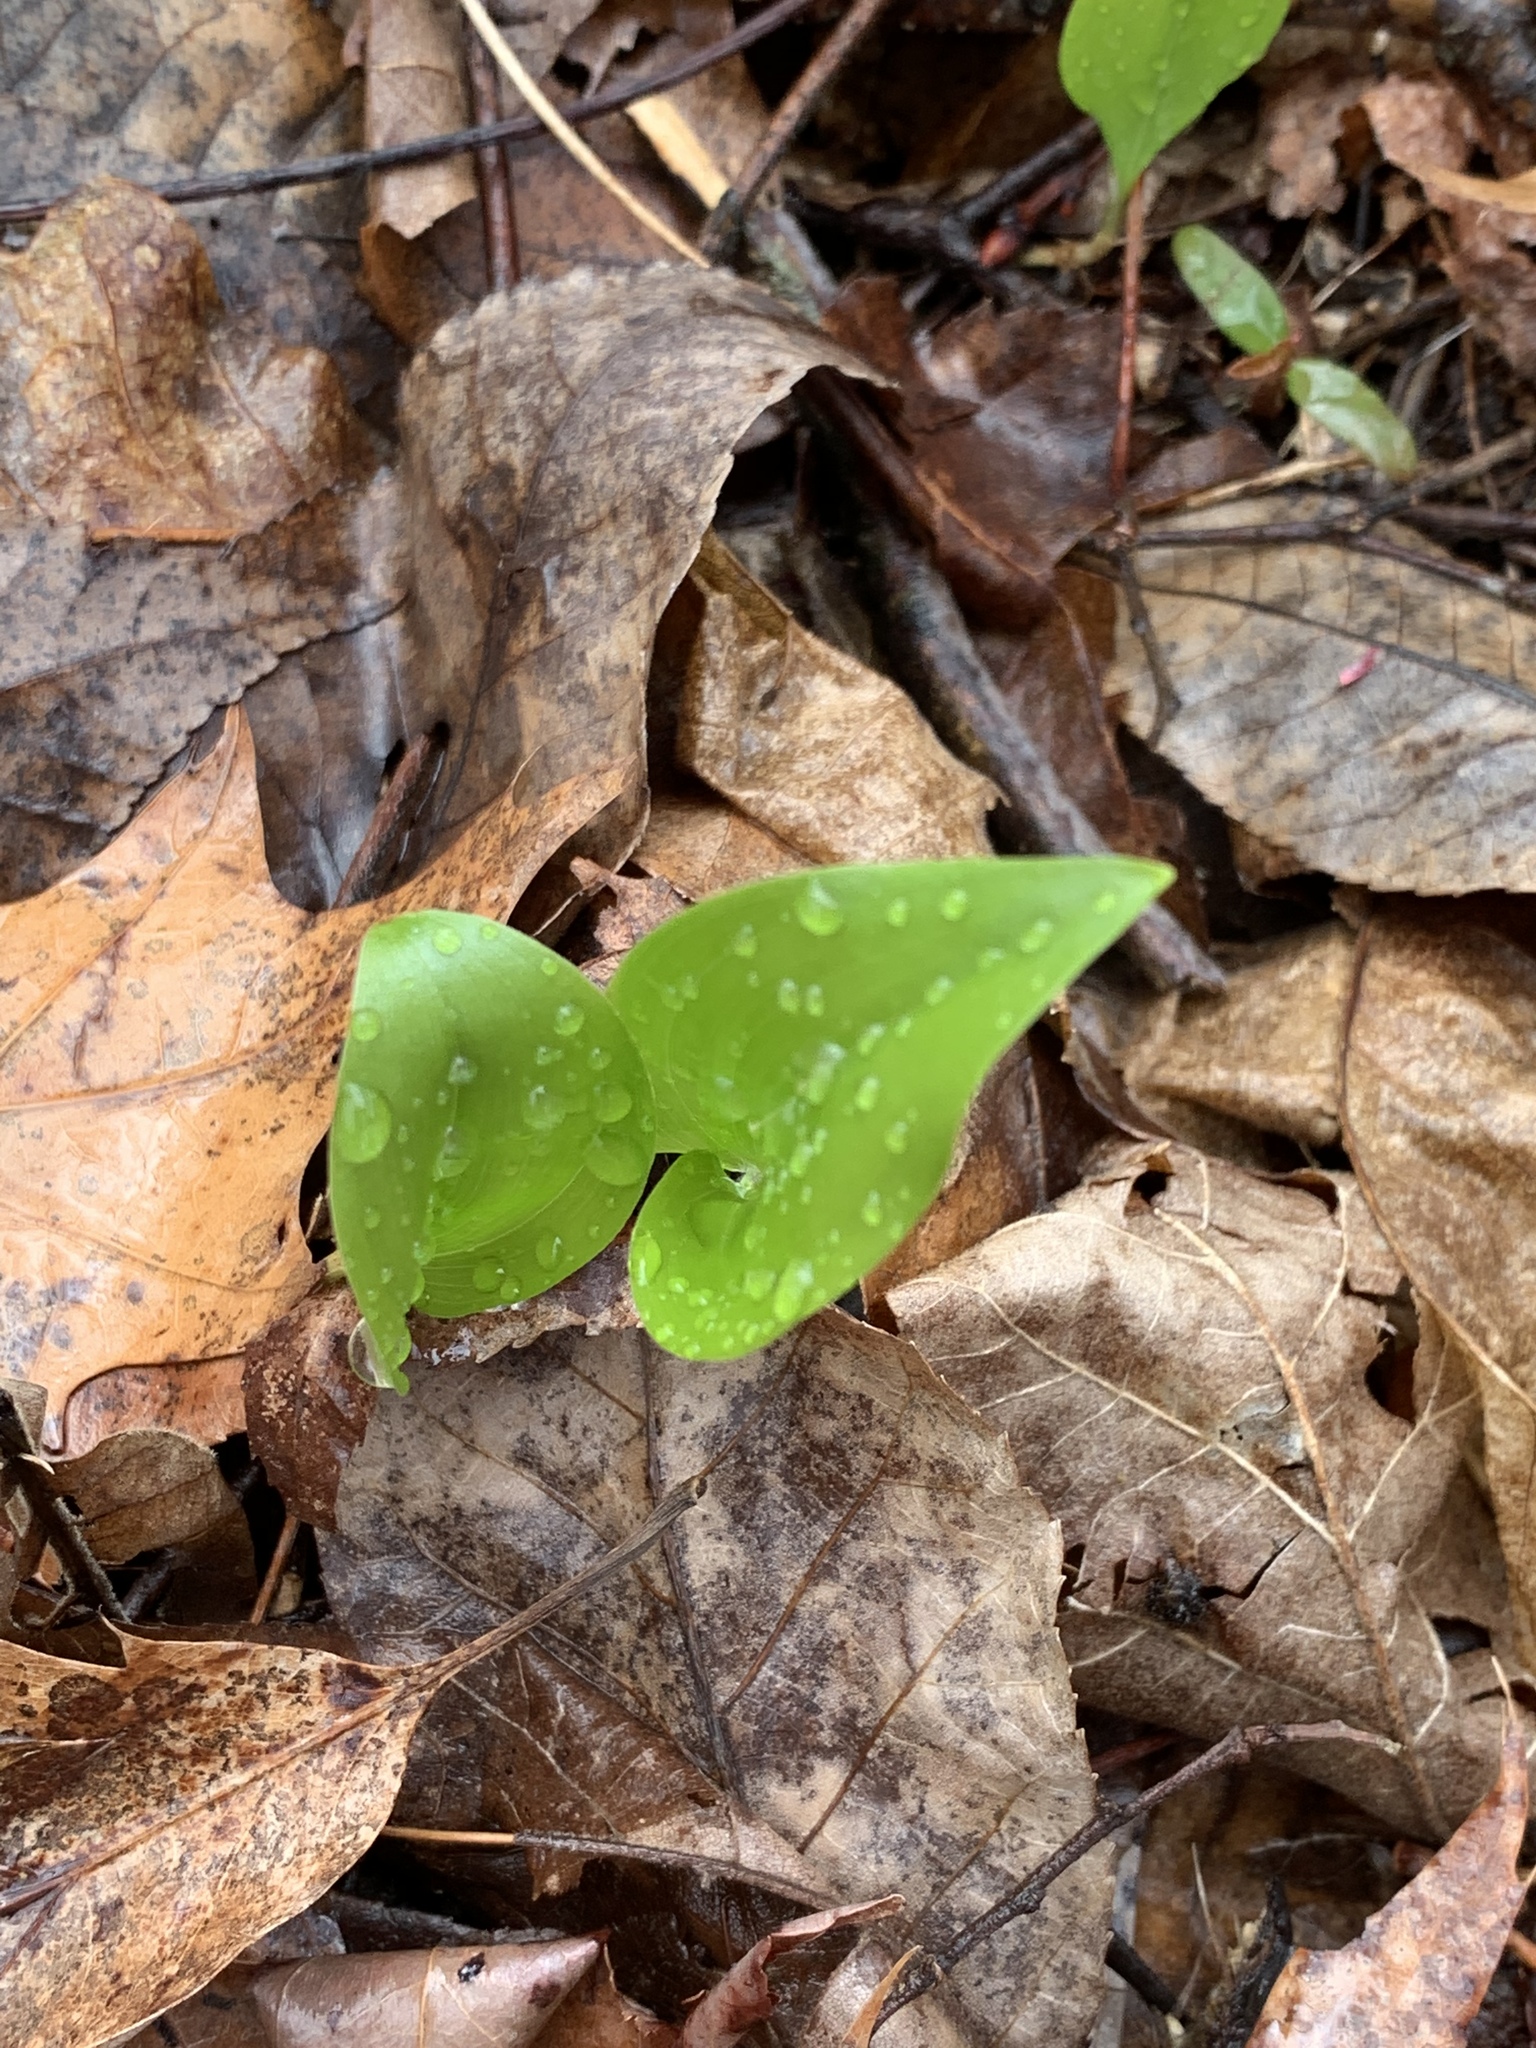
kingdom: Plantae
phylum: Tracheophyta
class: Liliopsida
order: Asparagales
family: Asparagaceae
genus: Maianthemum
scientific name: Maianthemum canadense
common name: False lily-of-the-valley
